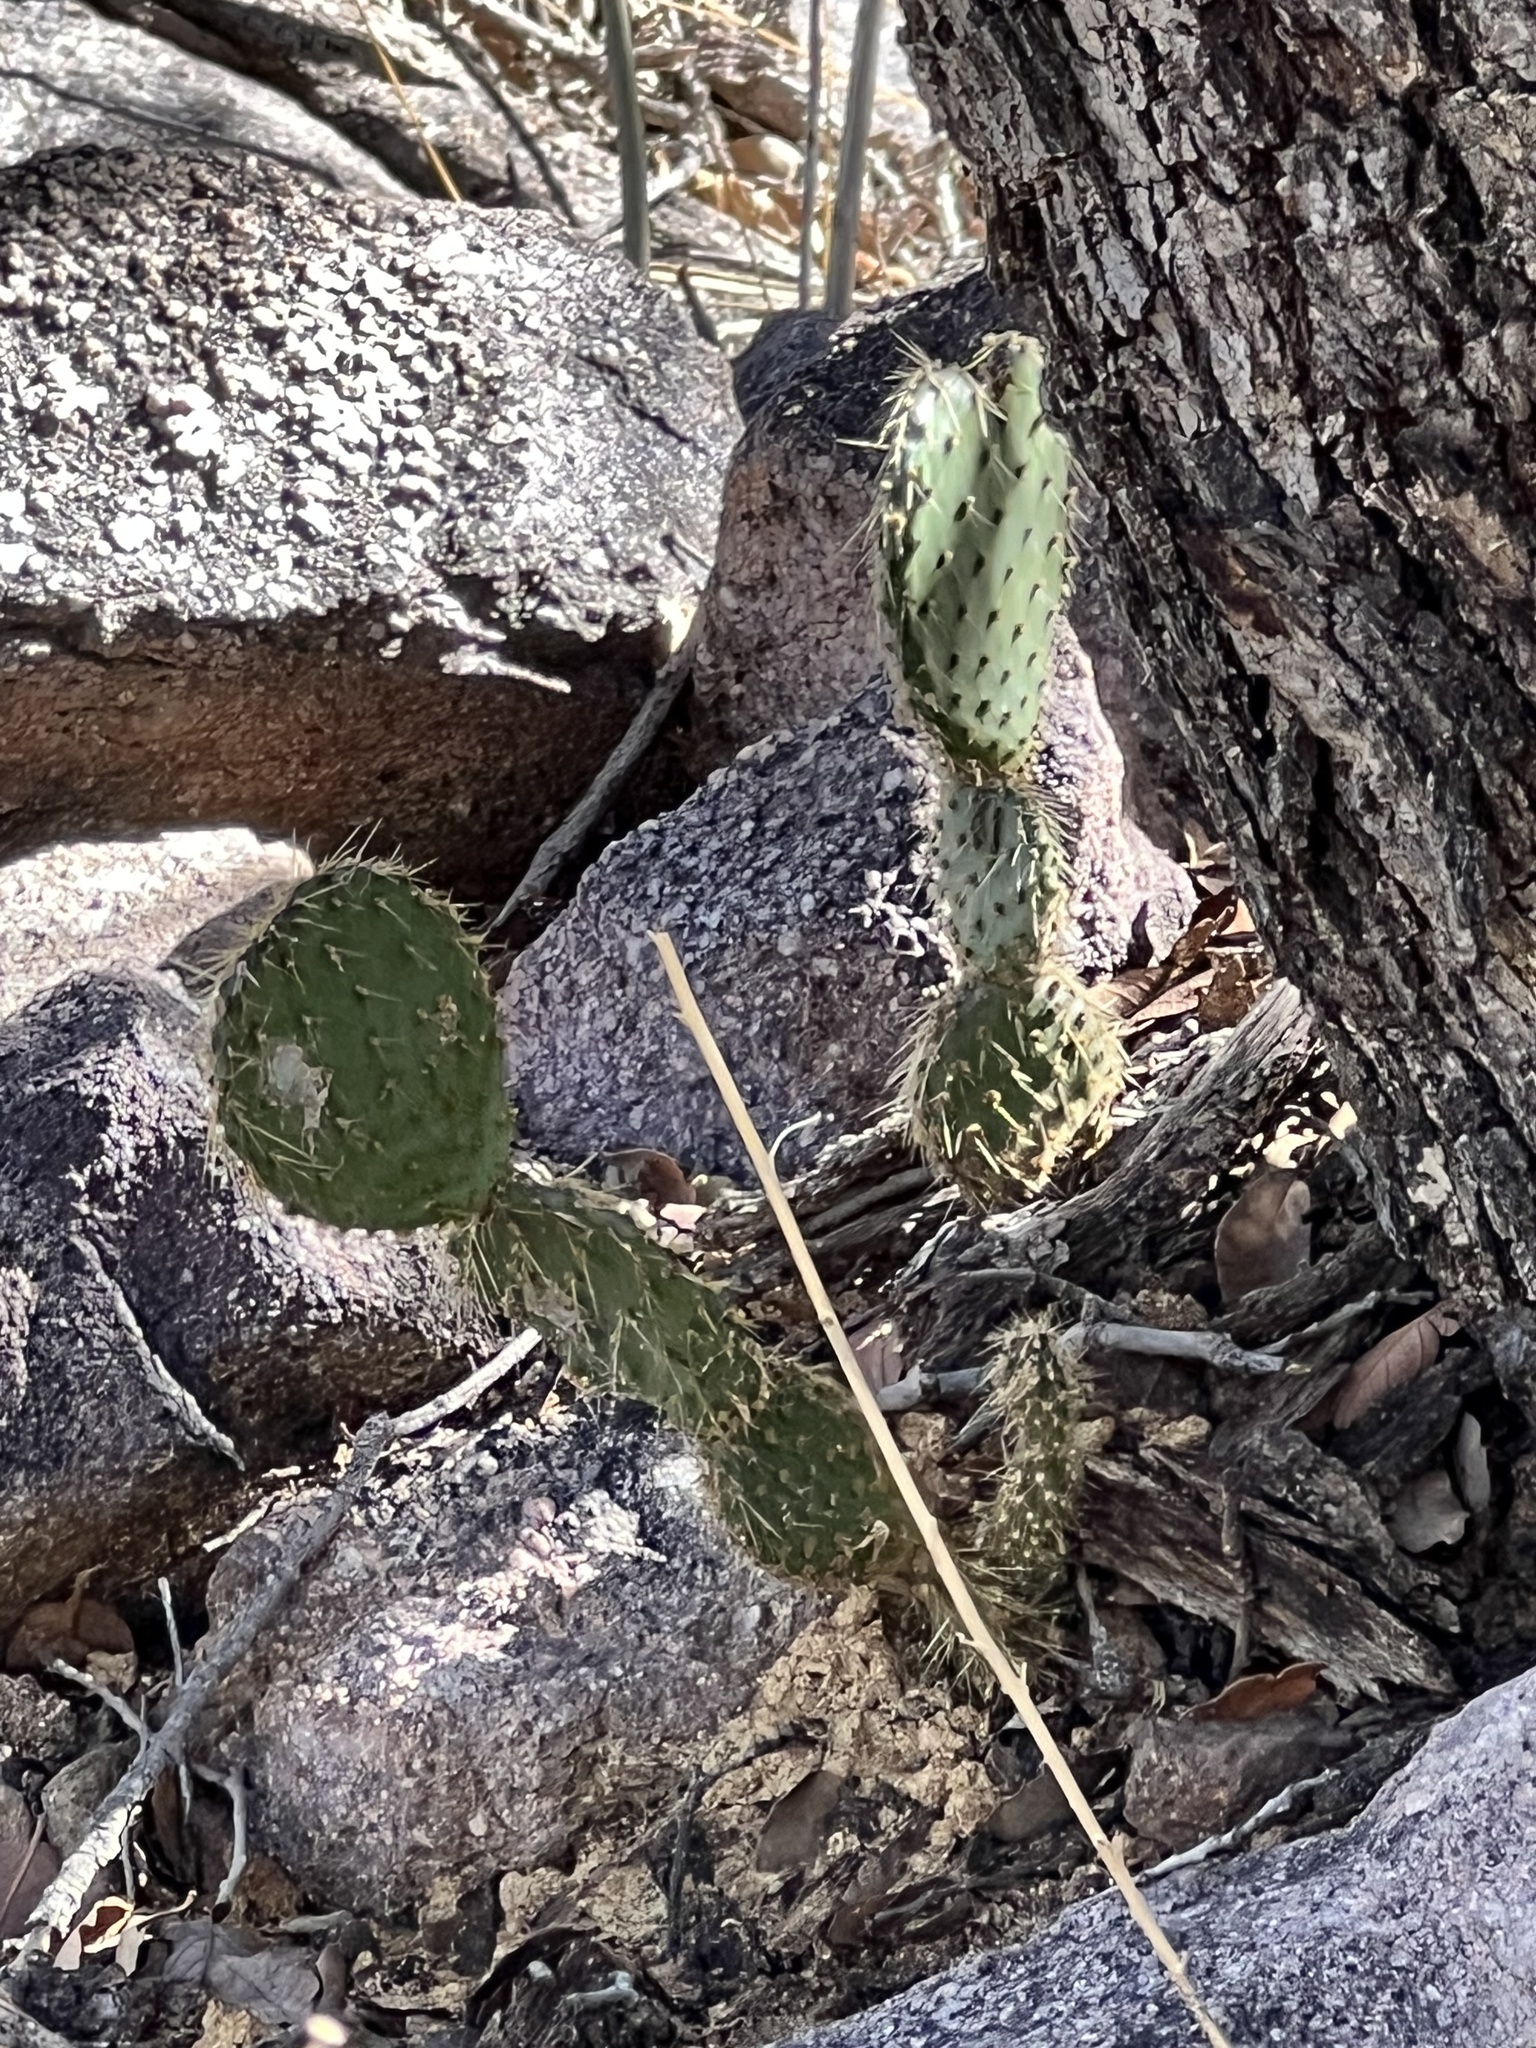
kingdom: Plantae
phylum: Tracheophyta
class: Magnoliopsida
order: Caryophyllales
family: Cactaceae
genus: Opuntia
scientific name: Opuntia chlorotica
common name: Dollar-joint prickly-pear
